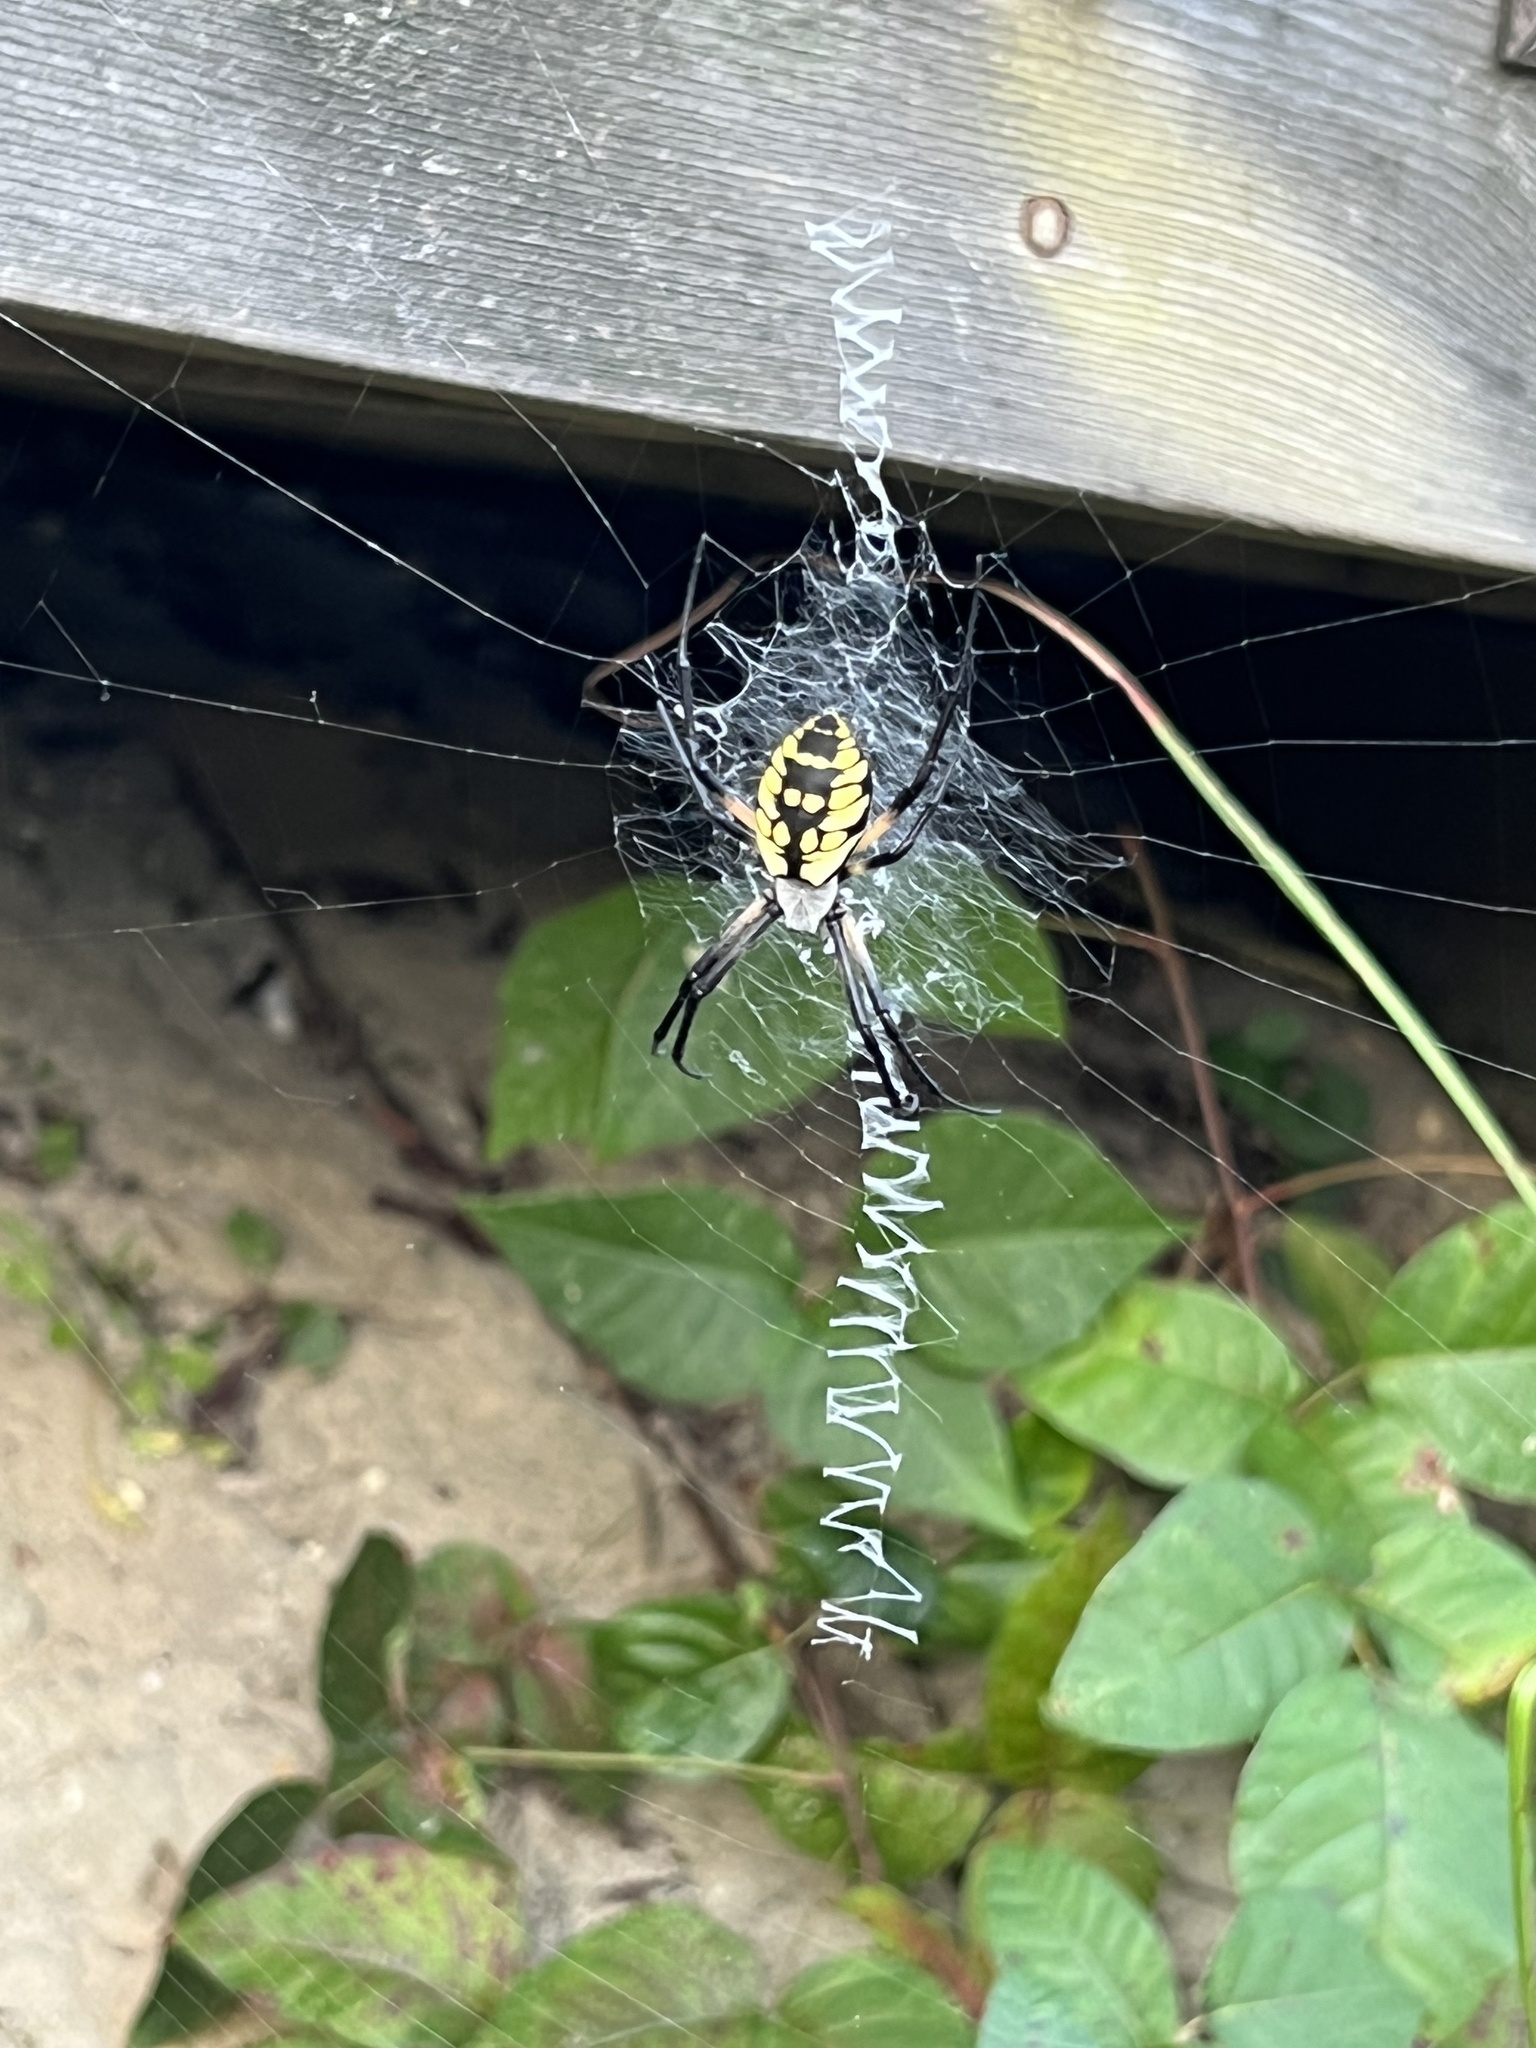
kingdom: Animalia
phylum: Arthropoda
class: Arachnida
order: Araneae
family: Araneidae
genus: Argiope
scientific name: Argiope aurantia
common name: Orb weavers
